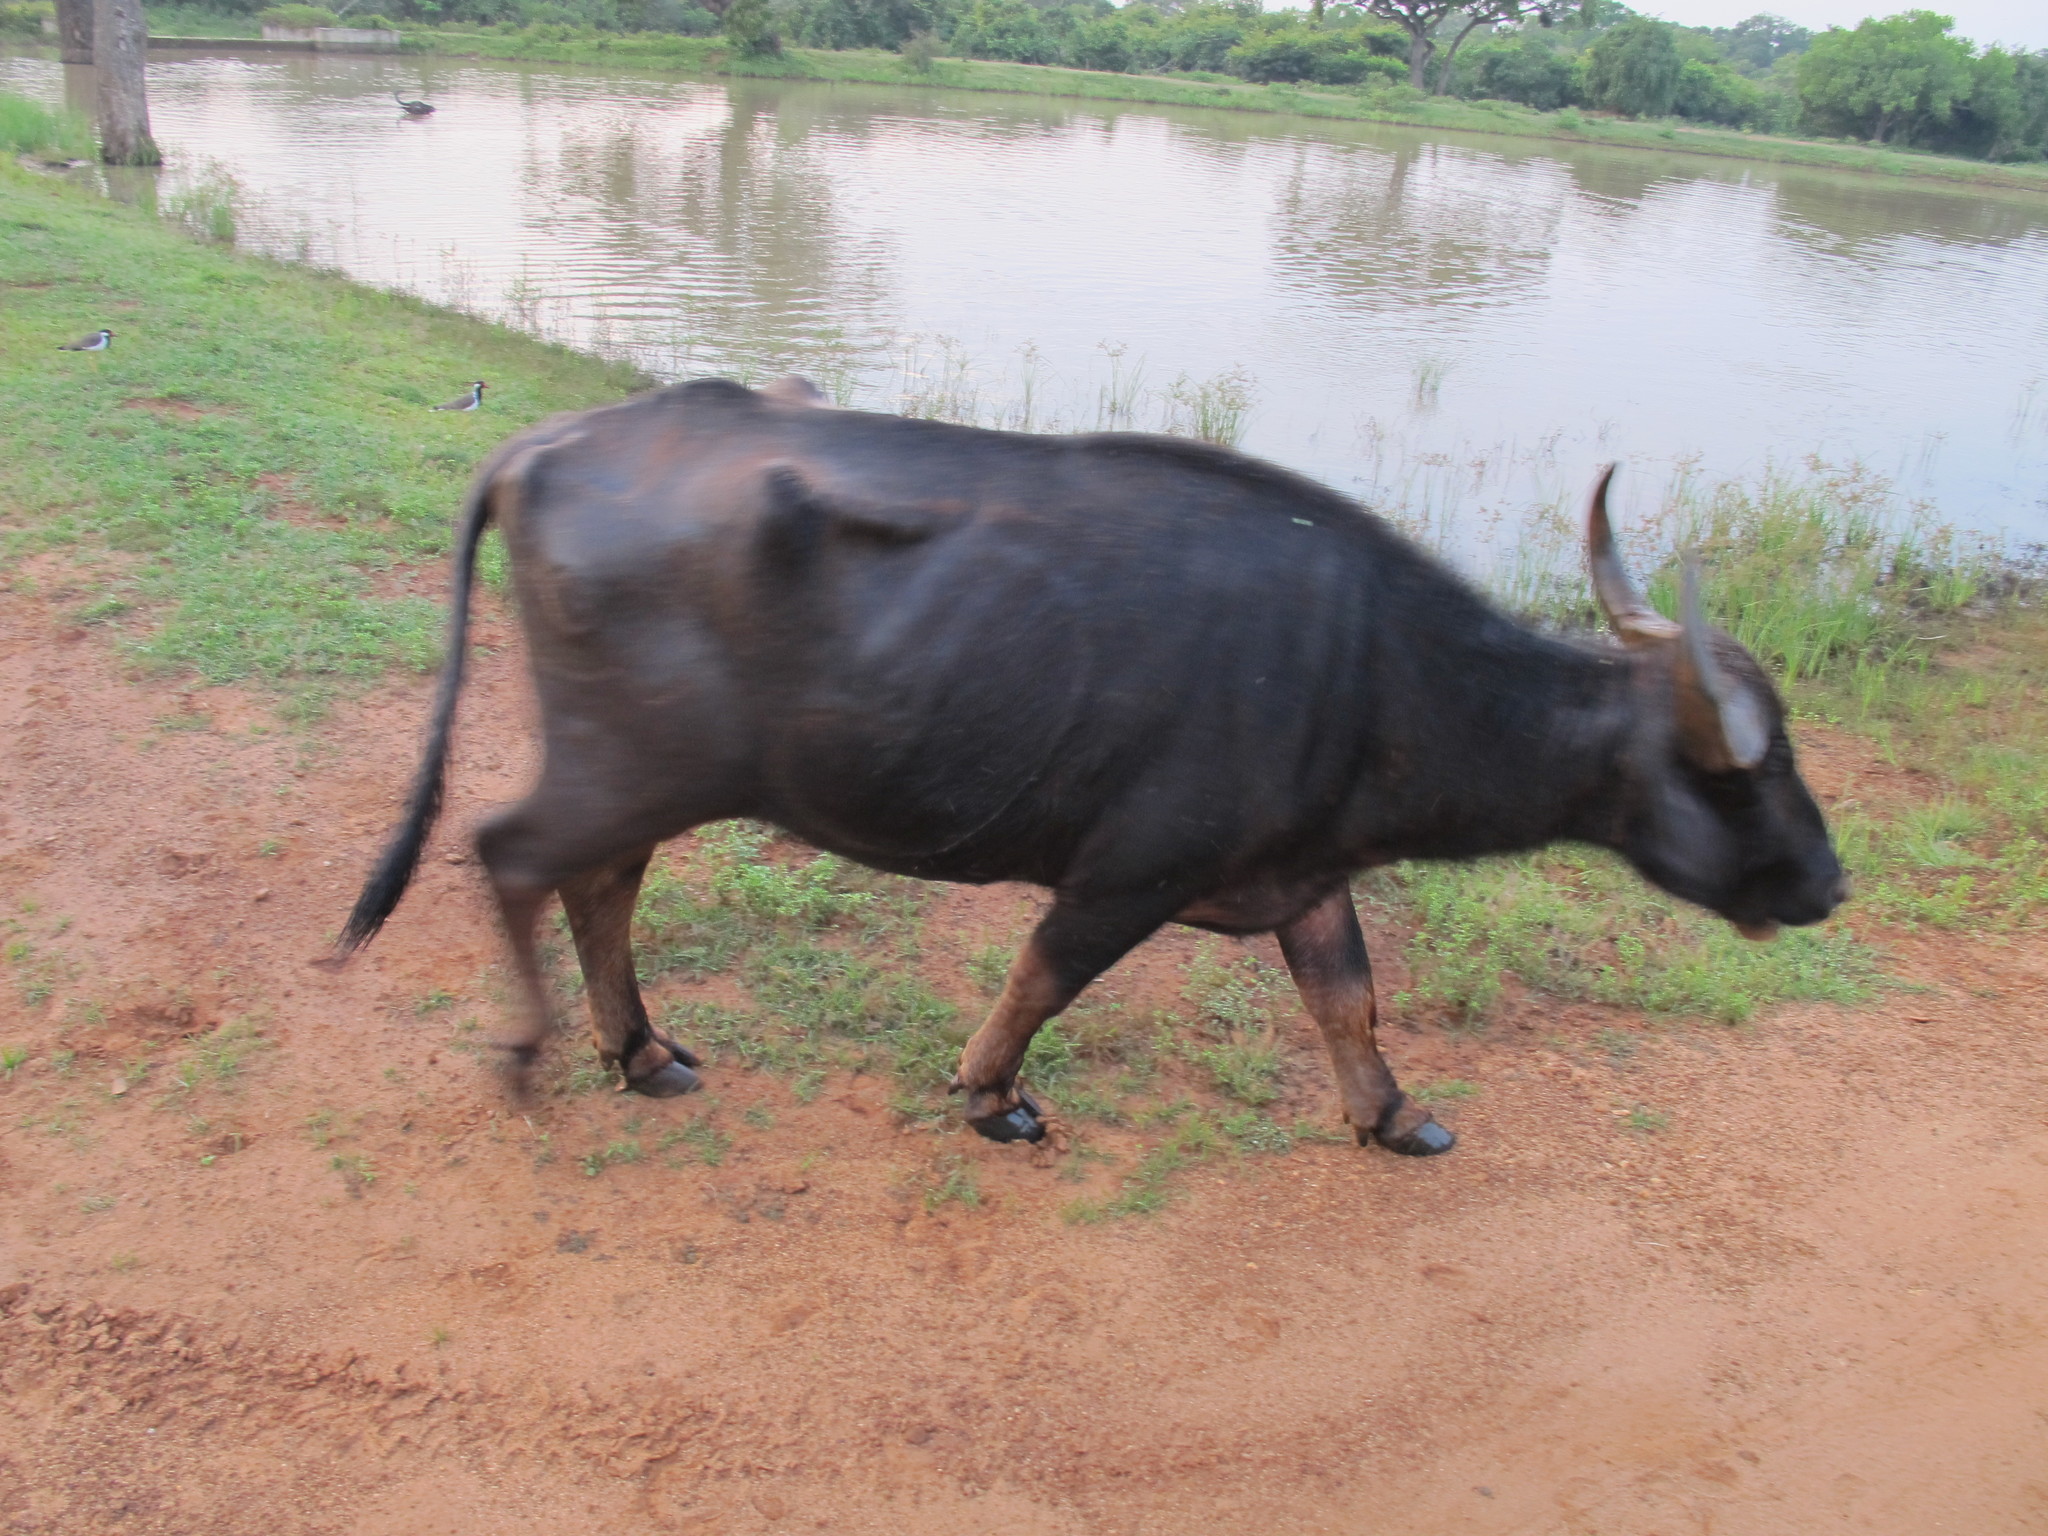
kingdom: Animalia
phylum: Chordata
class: Mammalia
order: Artiodactyla
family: Bovidae
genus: Bubalus
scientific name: Bubalus bubalis
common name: Water buffalo
